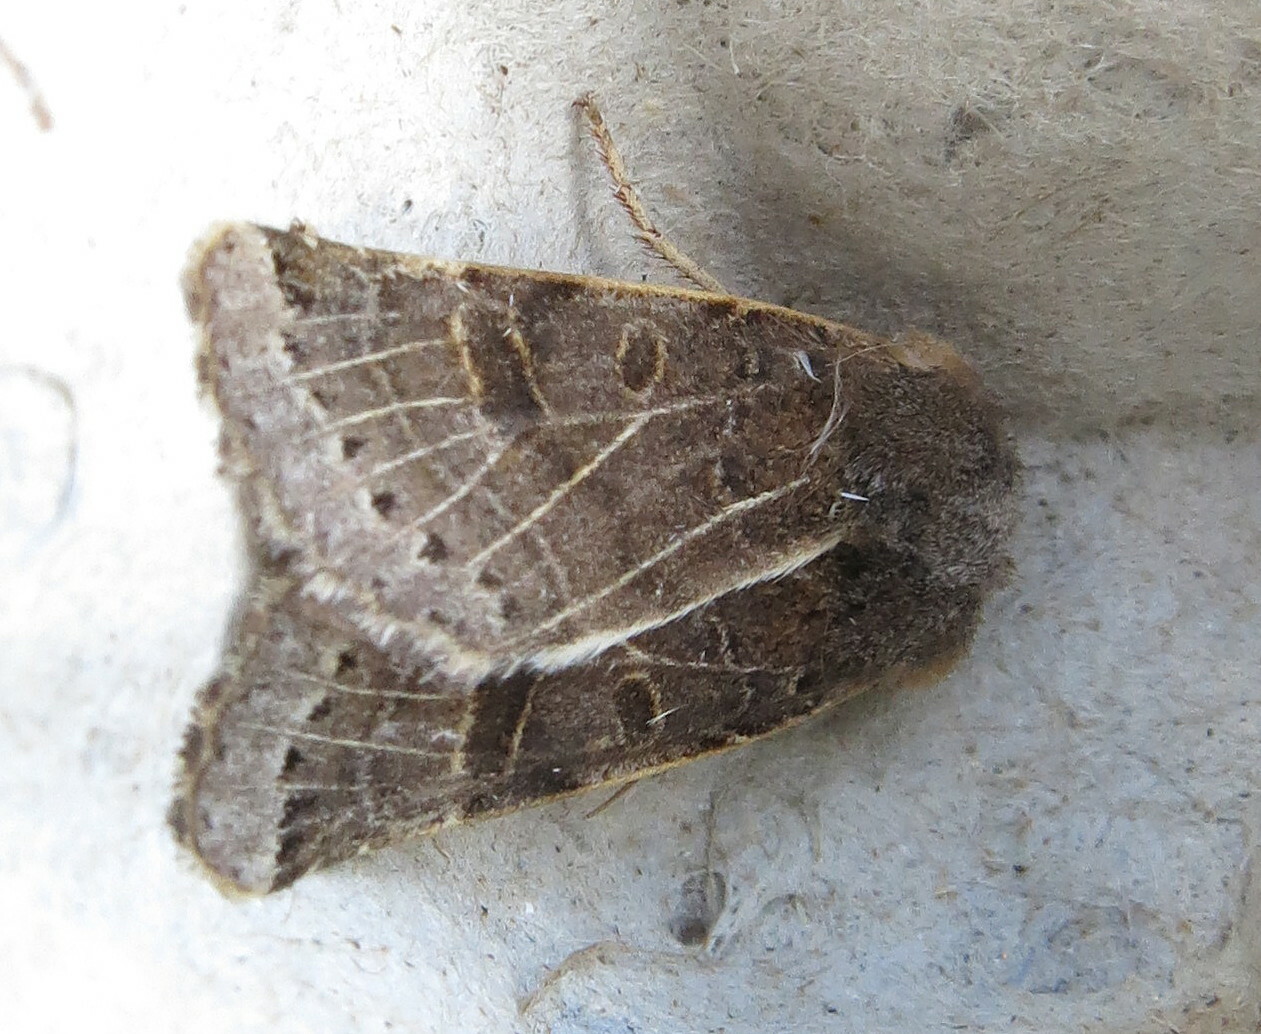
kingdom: Animalia
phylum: Arthropoda
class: Insecta
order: Lepidoptera
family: Noctuidae
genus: Agrochola
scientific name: Agrochola lunosa
